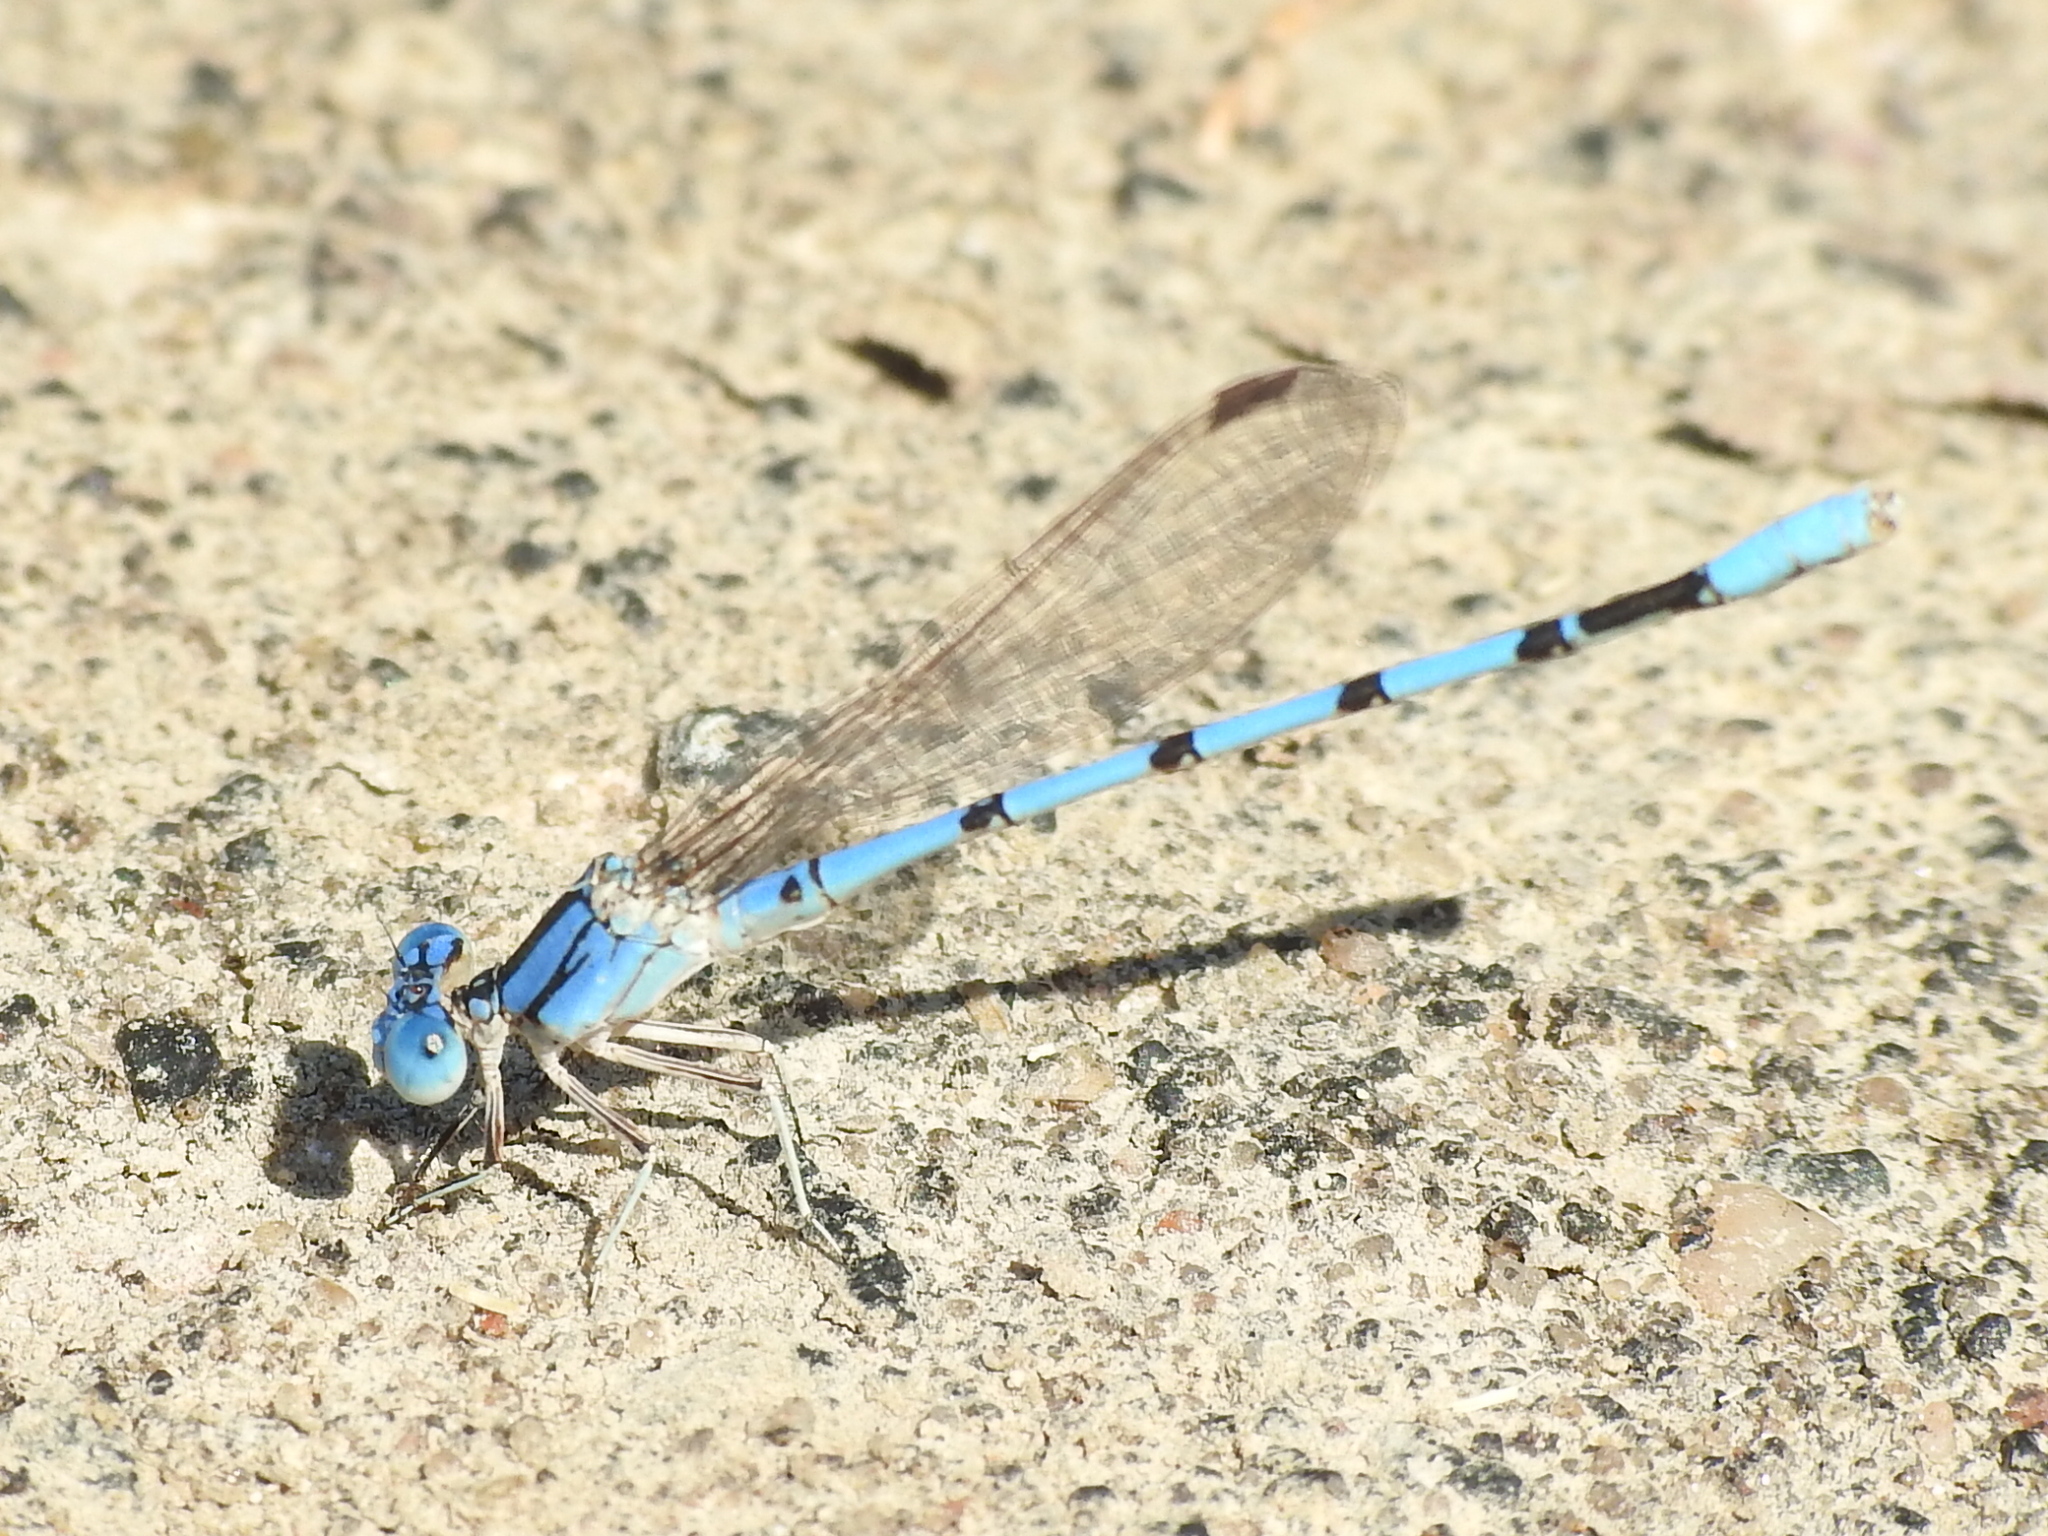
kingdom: Animalia
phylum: Arthropoda
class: Insecta
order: Odonata
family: Coenagrionidae
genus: Argia
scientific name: Argia nahuana
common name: Aztec dancer
